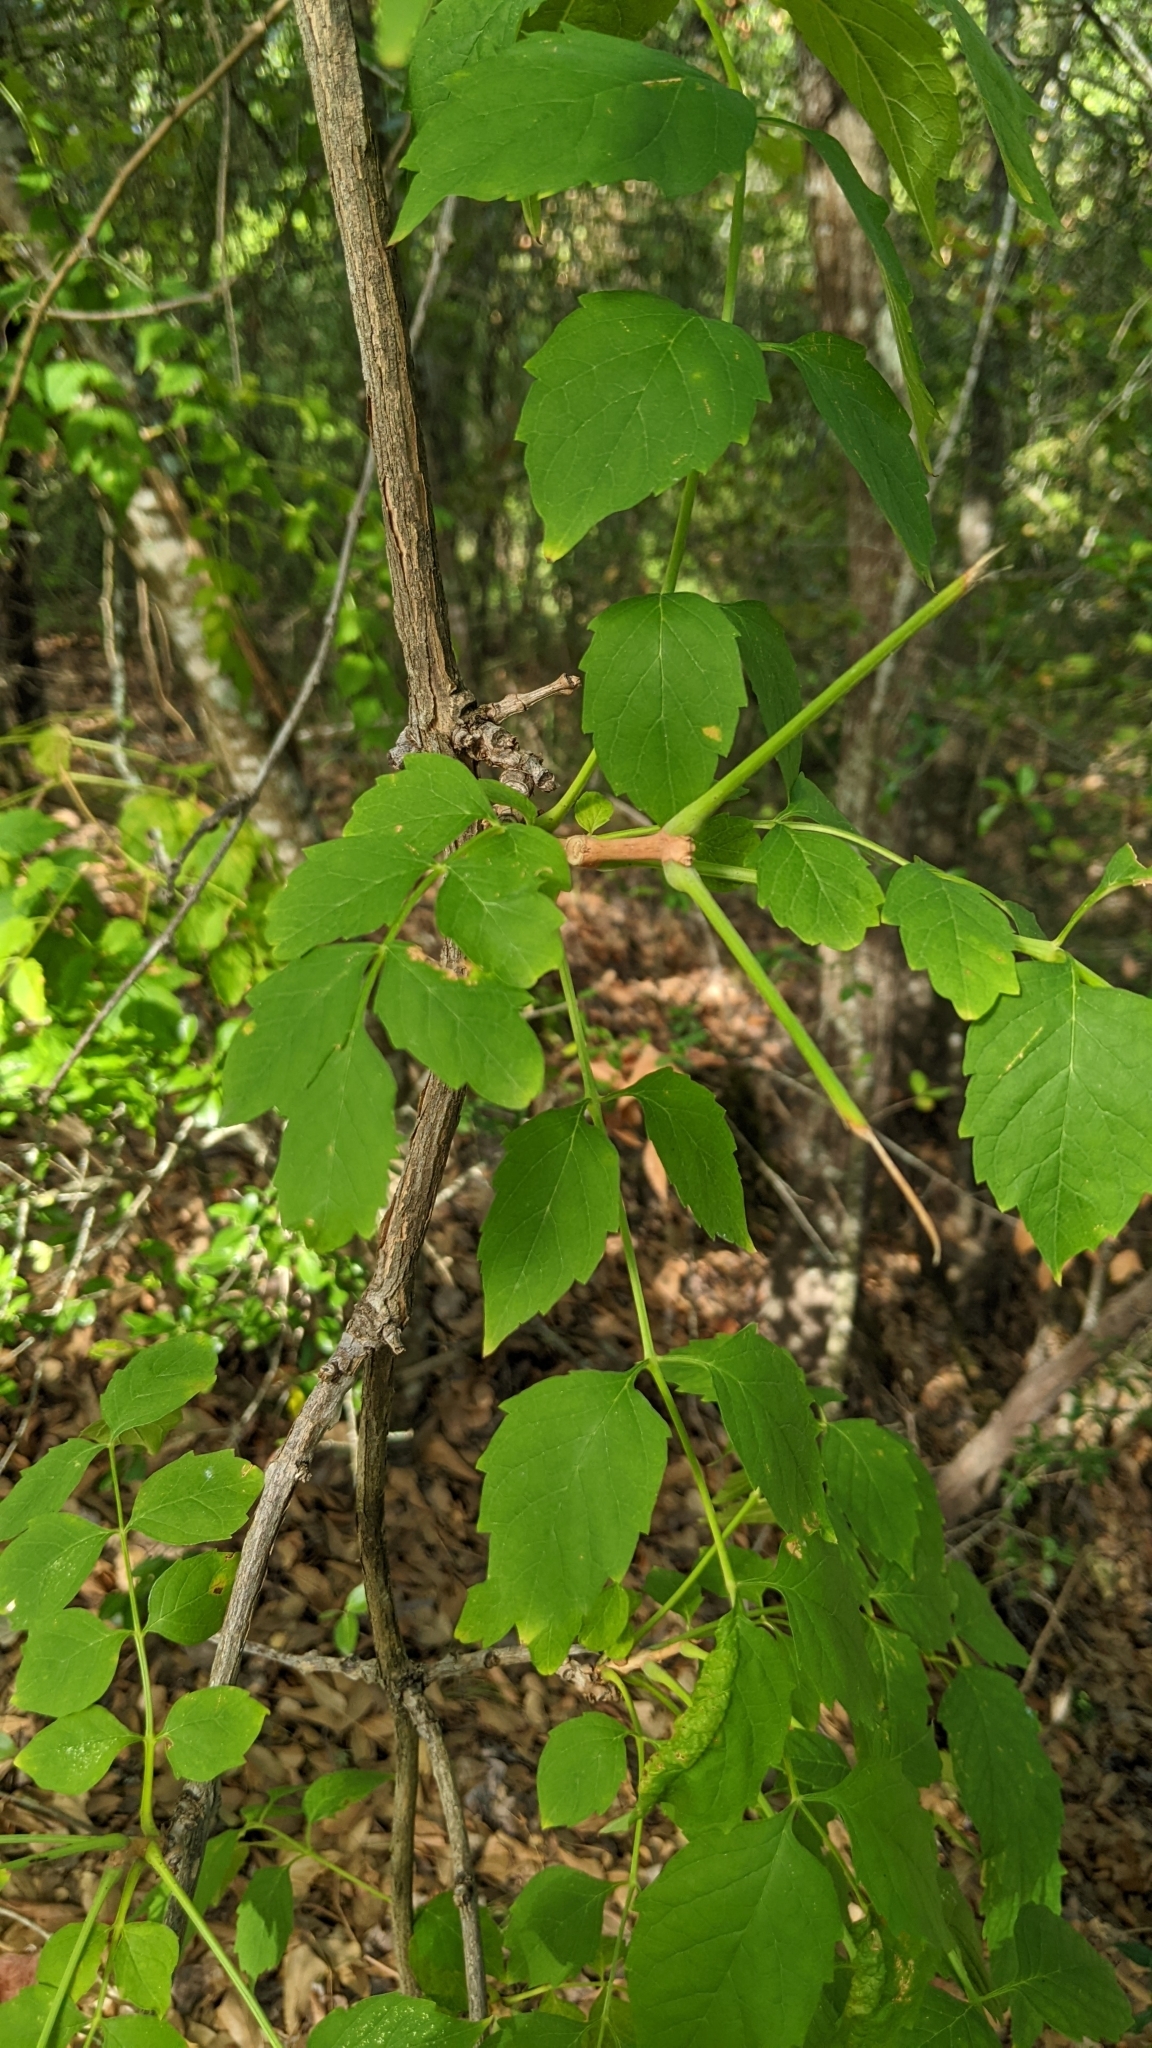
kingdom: Plantae
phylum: Tracheophyta
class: Magnoliopsida
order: Lamiales
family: Bignoniaceae
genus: Campsis
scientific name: Campsis radicans
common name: Trumpet-creeper
